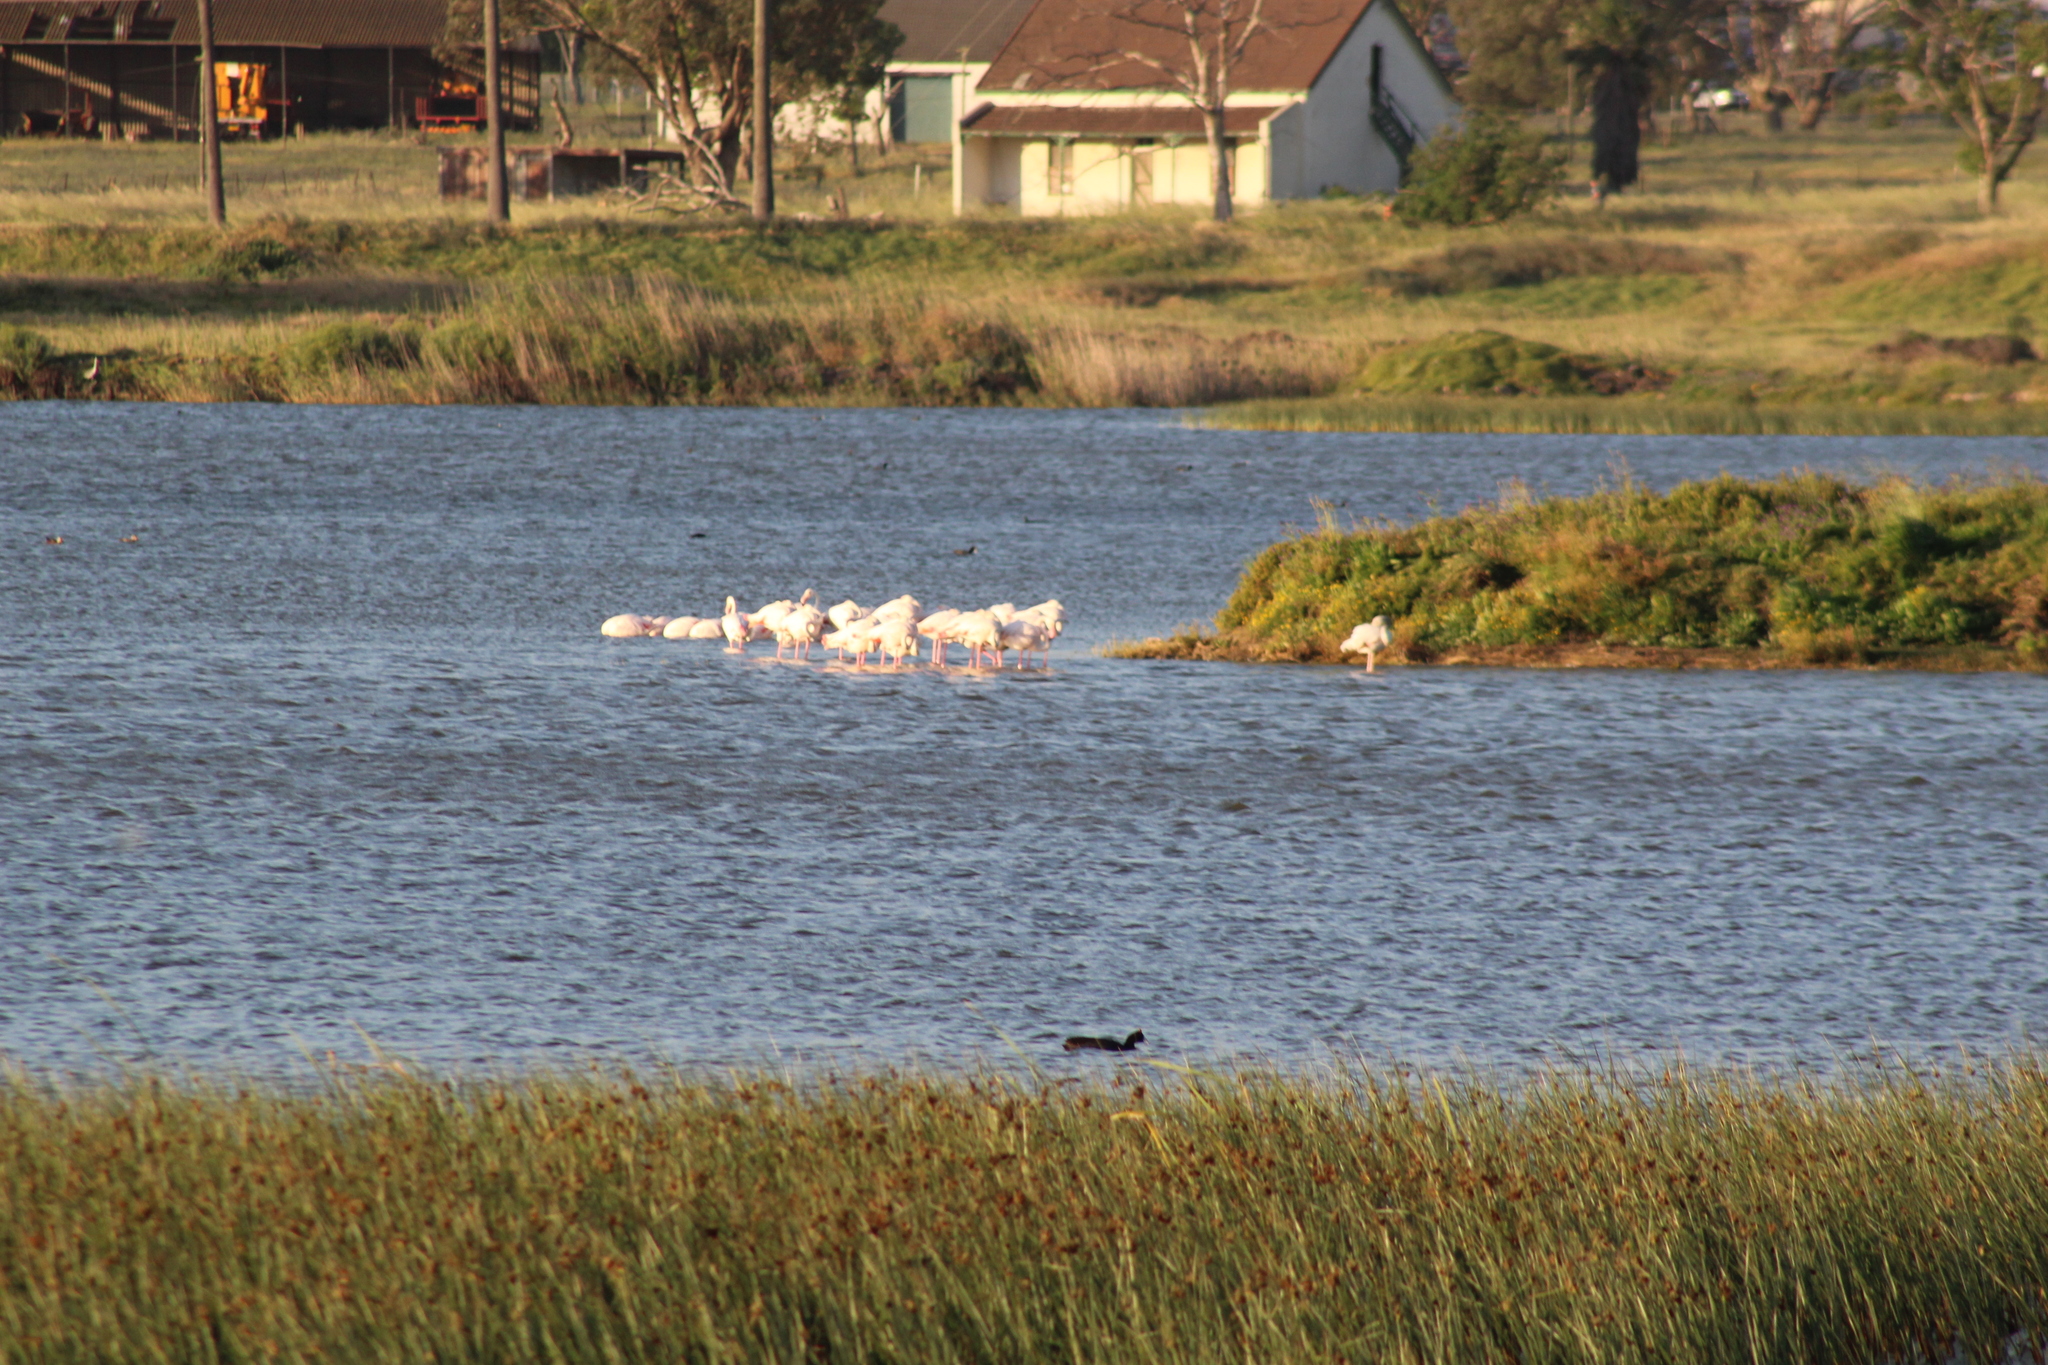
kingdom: Animalia
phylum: Chordata
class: Aves
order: Phoenicopteriformes
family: Phoenicopteridae
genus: Phoenicopterus
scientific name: Phoenicopterus roseus
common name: Greater flamingo
